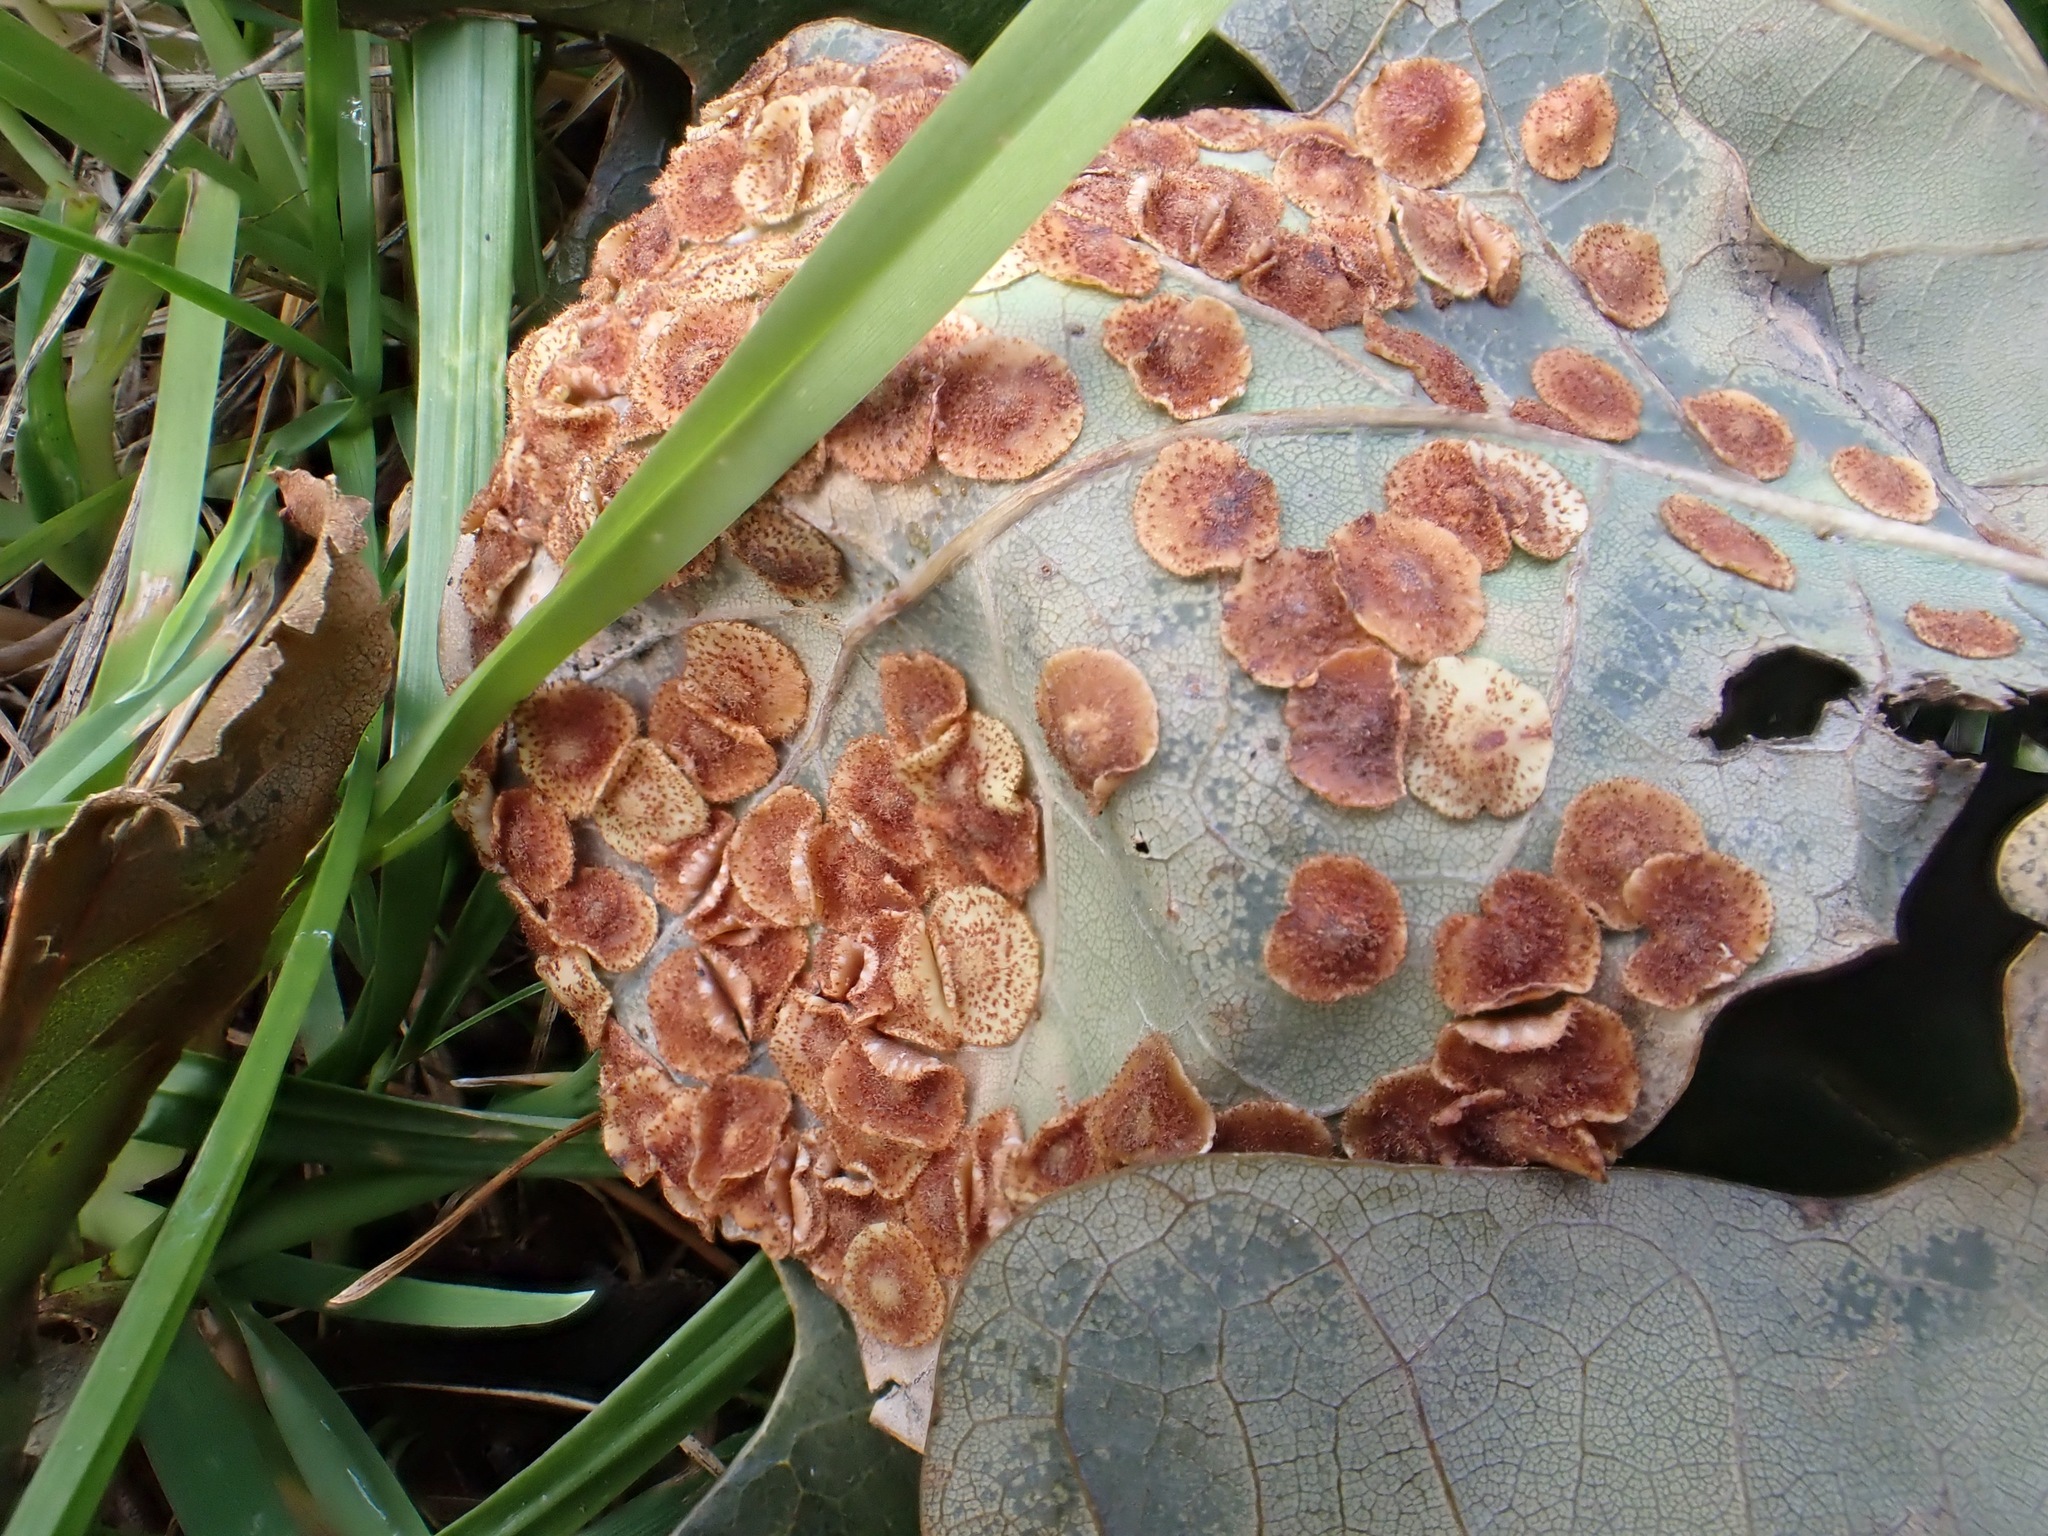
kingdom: Animalia
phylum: Arthropoda
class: Insecta
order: Hymenoptera
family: Cynipidae
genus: Neuroterus
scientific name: Neuroterus quercusbaccarum
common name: Common spangle gall
